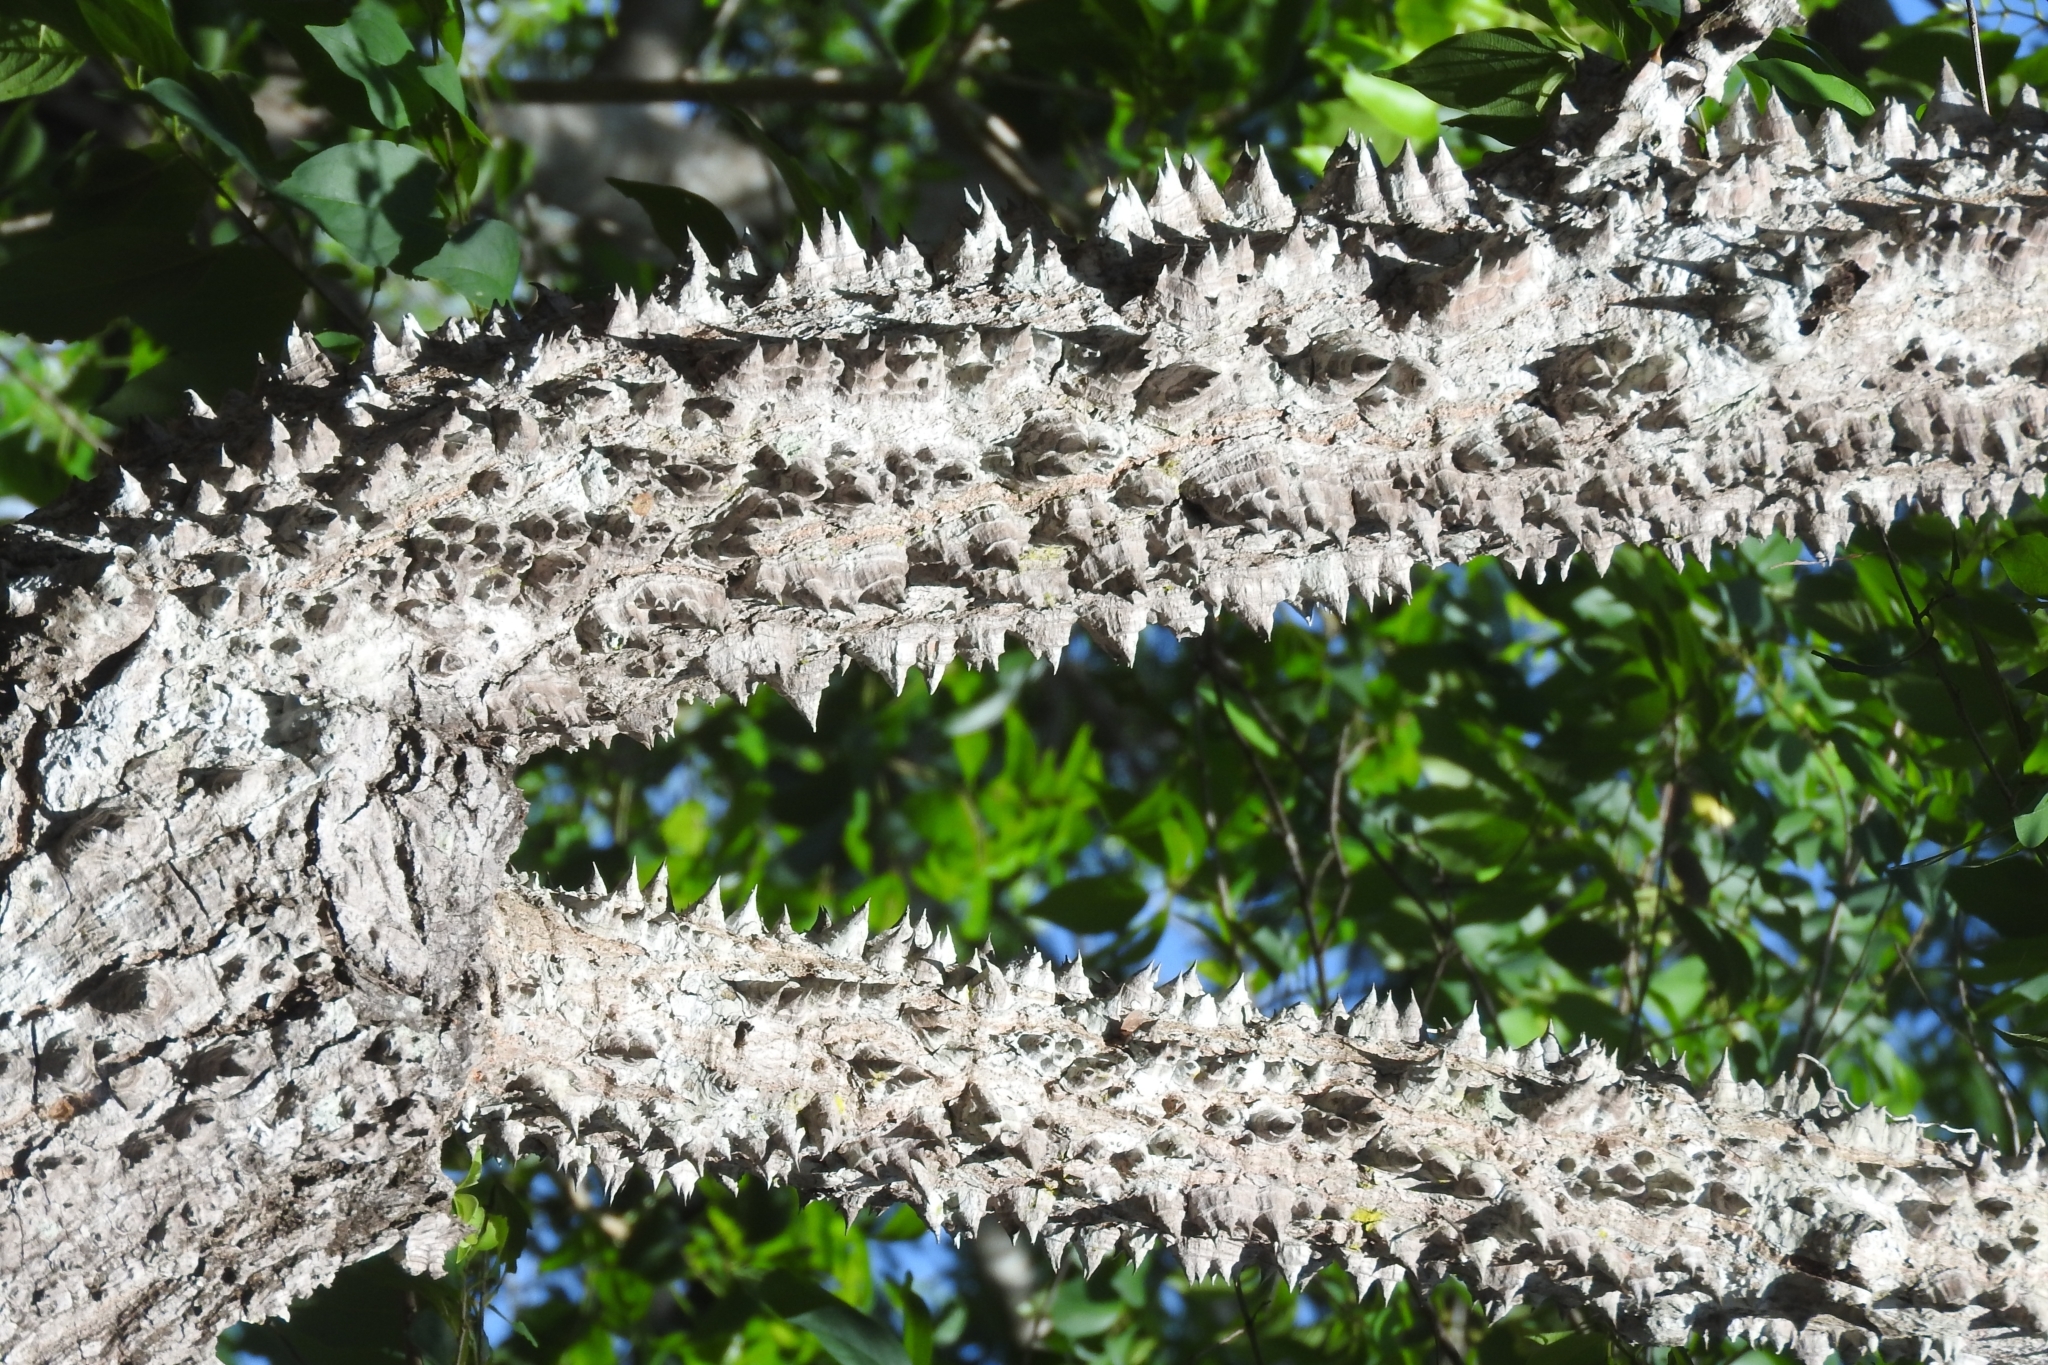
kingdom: Plantae
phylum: Tracheophyta
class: Magnoliopsida
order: Malvales
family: Malvaceae
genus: Ceiba
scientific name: Ceiba schottii
